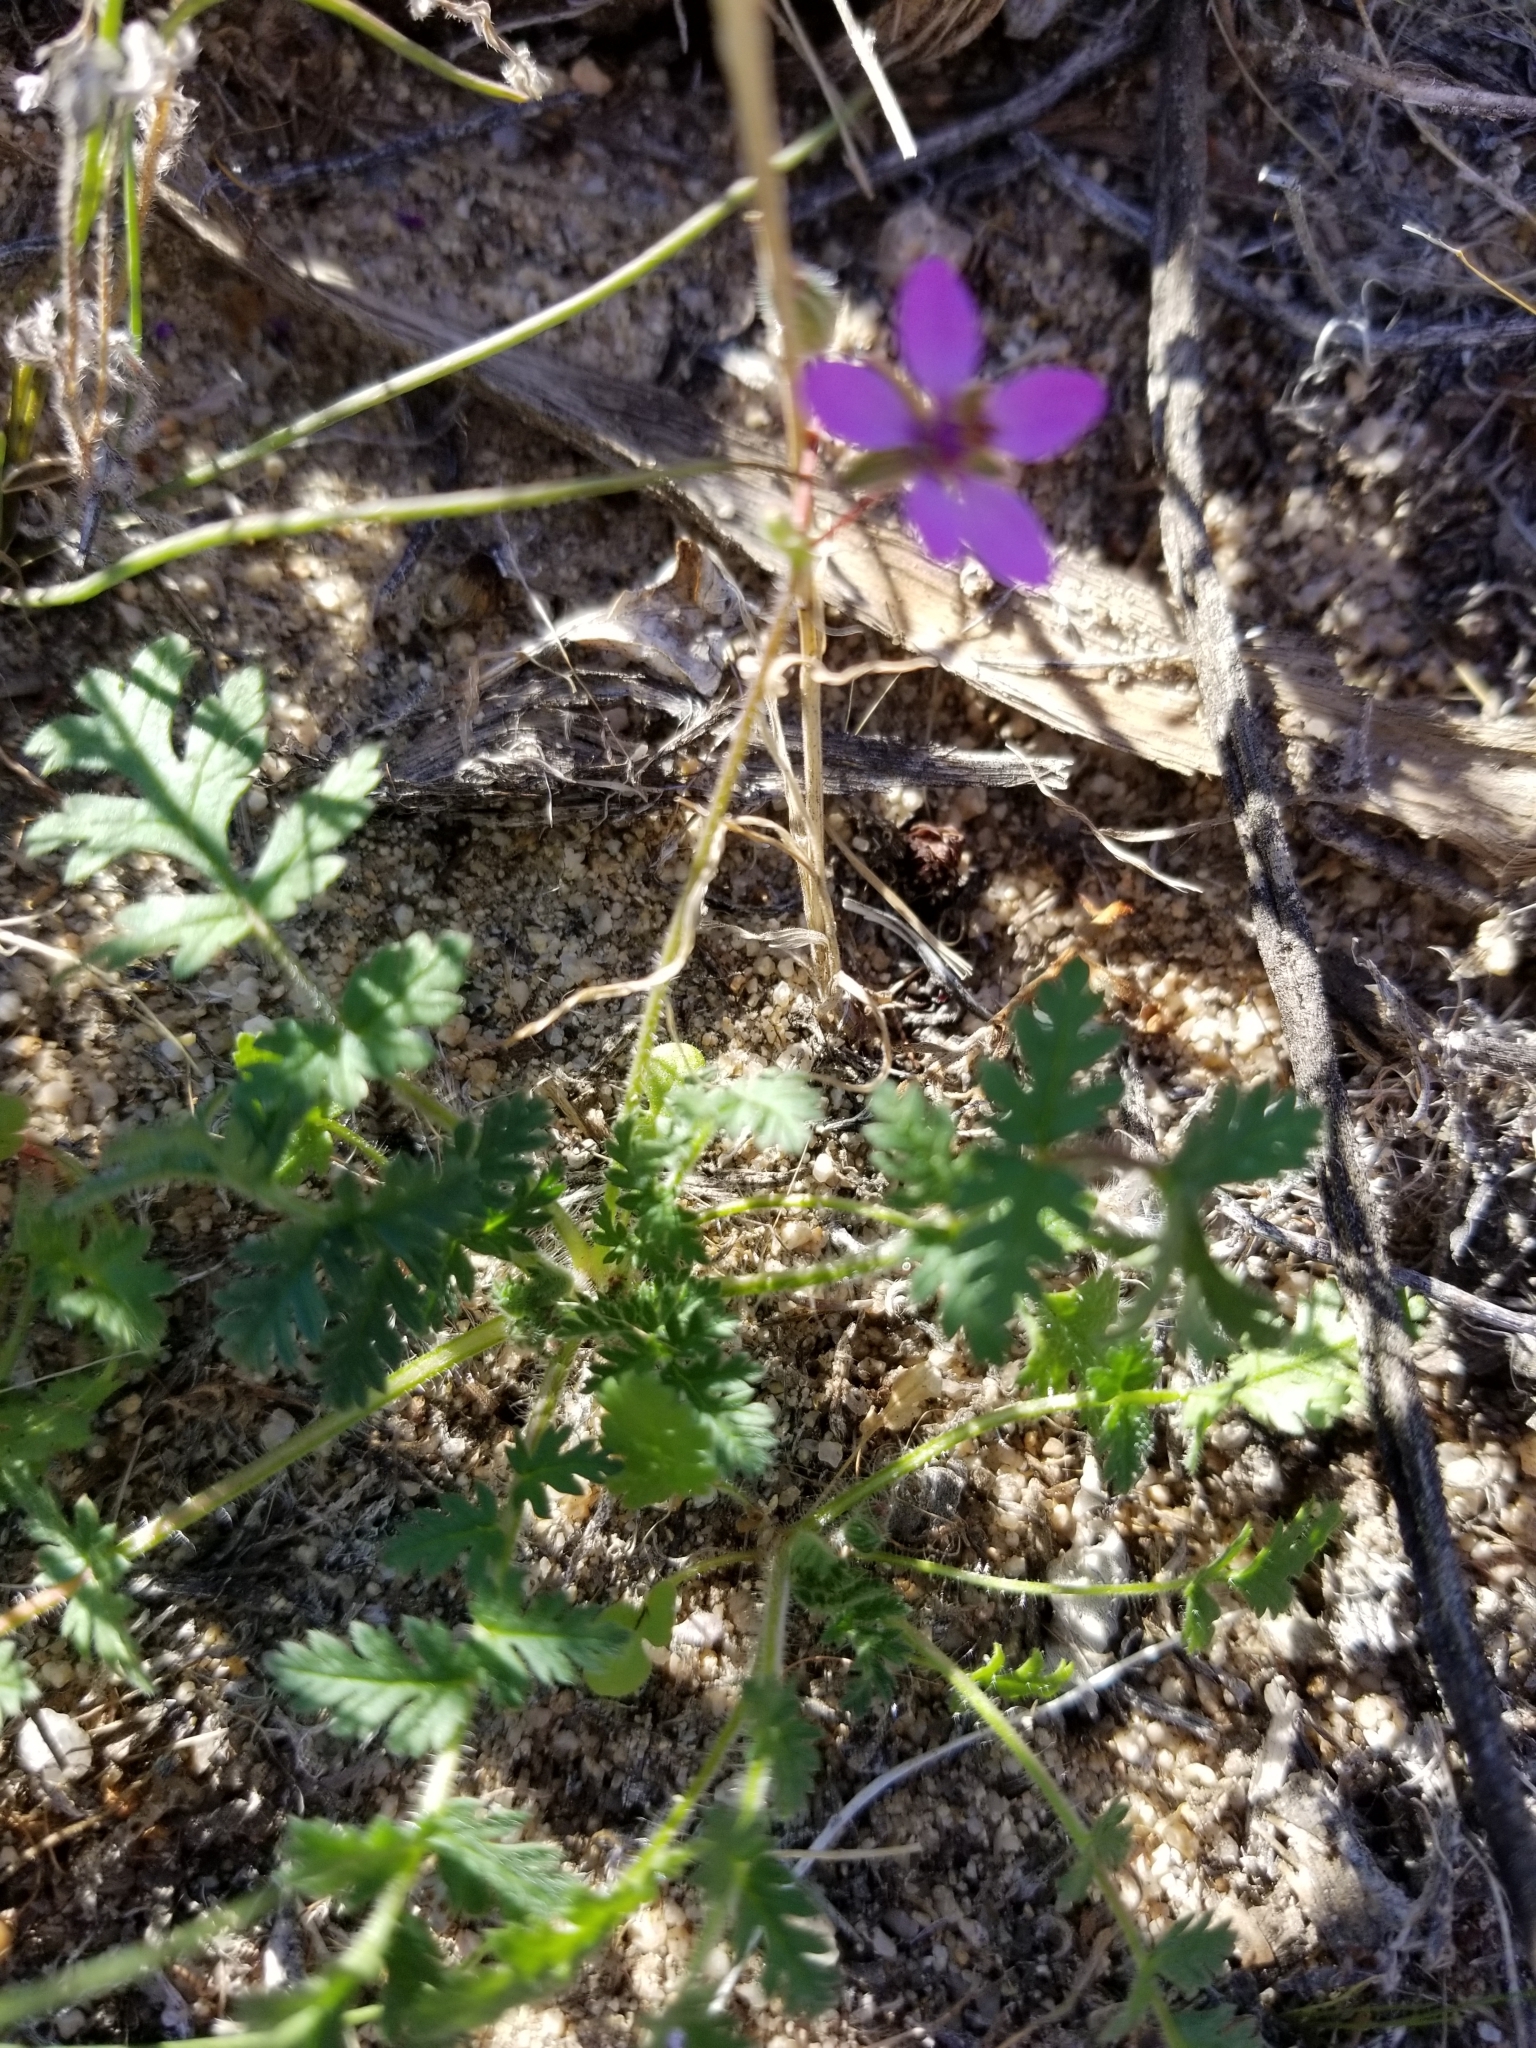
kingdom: Plantae
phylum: Tracheophyta
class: Magnoliopsida
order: Geraniales
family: Geraniaceae
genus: Erodium
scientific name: Erodium cicutarium
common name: Common stork's-bill
